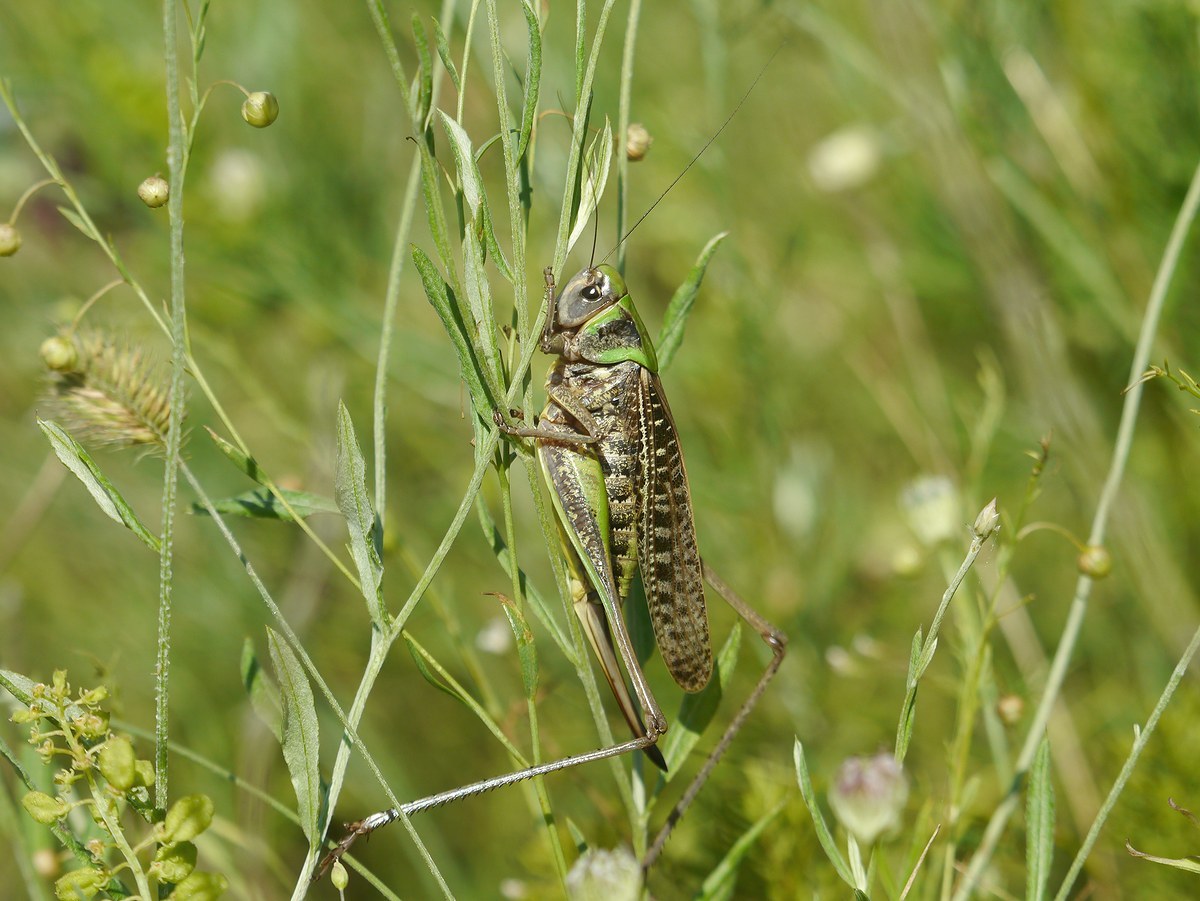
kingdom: Animalia
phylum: Arthropoda
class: Insecta
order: Orthoptera
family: Tettigoniidae
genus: Decticus
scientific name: Decticus verrucivorus
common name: Wart-biter
